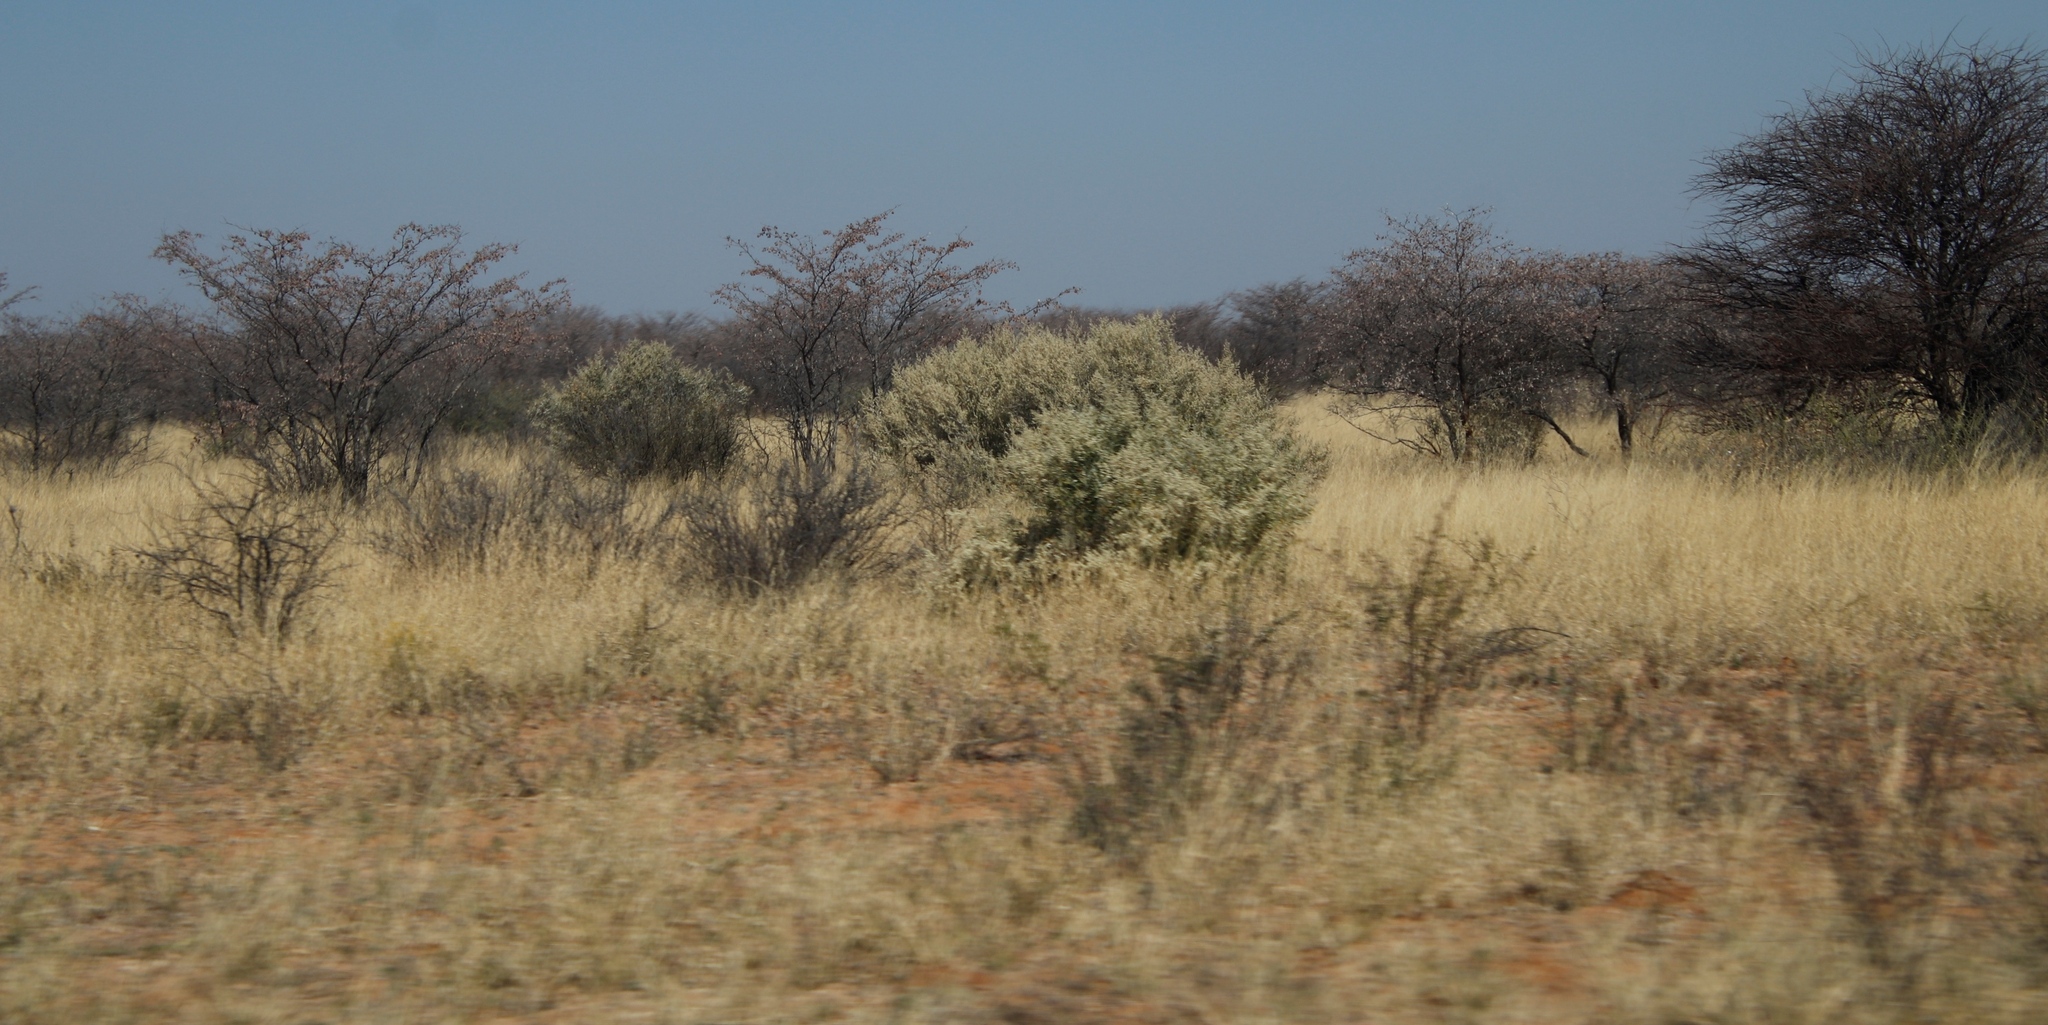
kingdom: Plantae
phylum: Tracheophyta
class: Magnoliopsida
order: Fabales
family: Fabaceae
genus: Senegalia
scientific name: Senegalia mellifera
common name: Hookthorn
